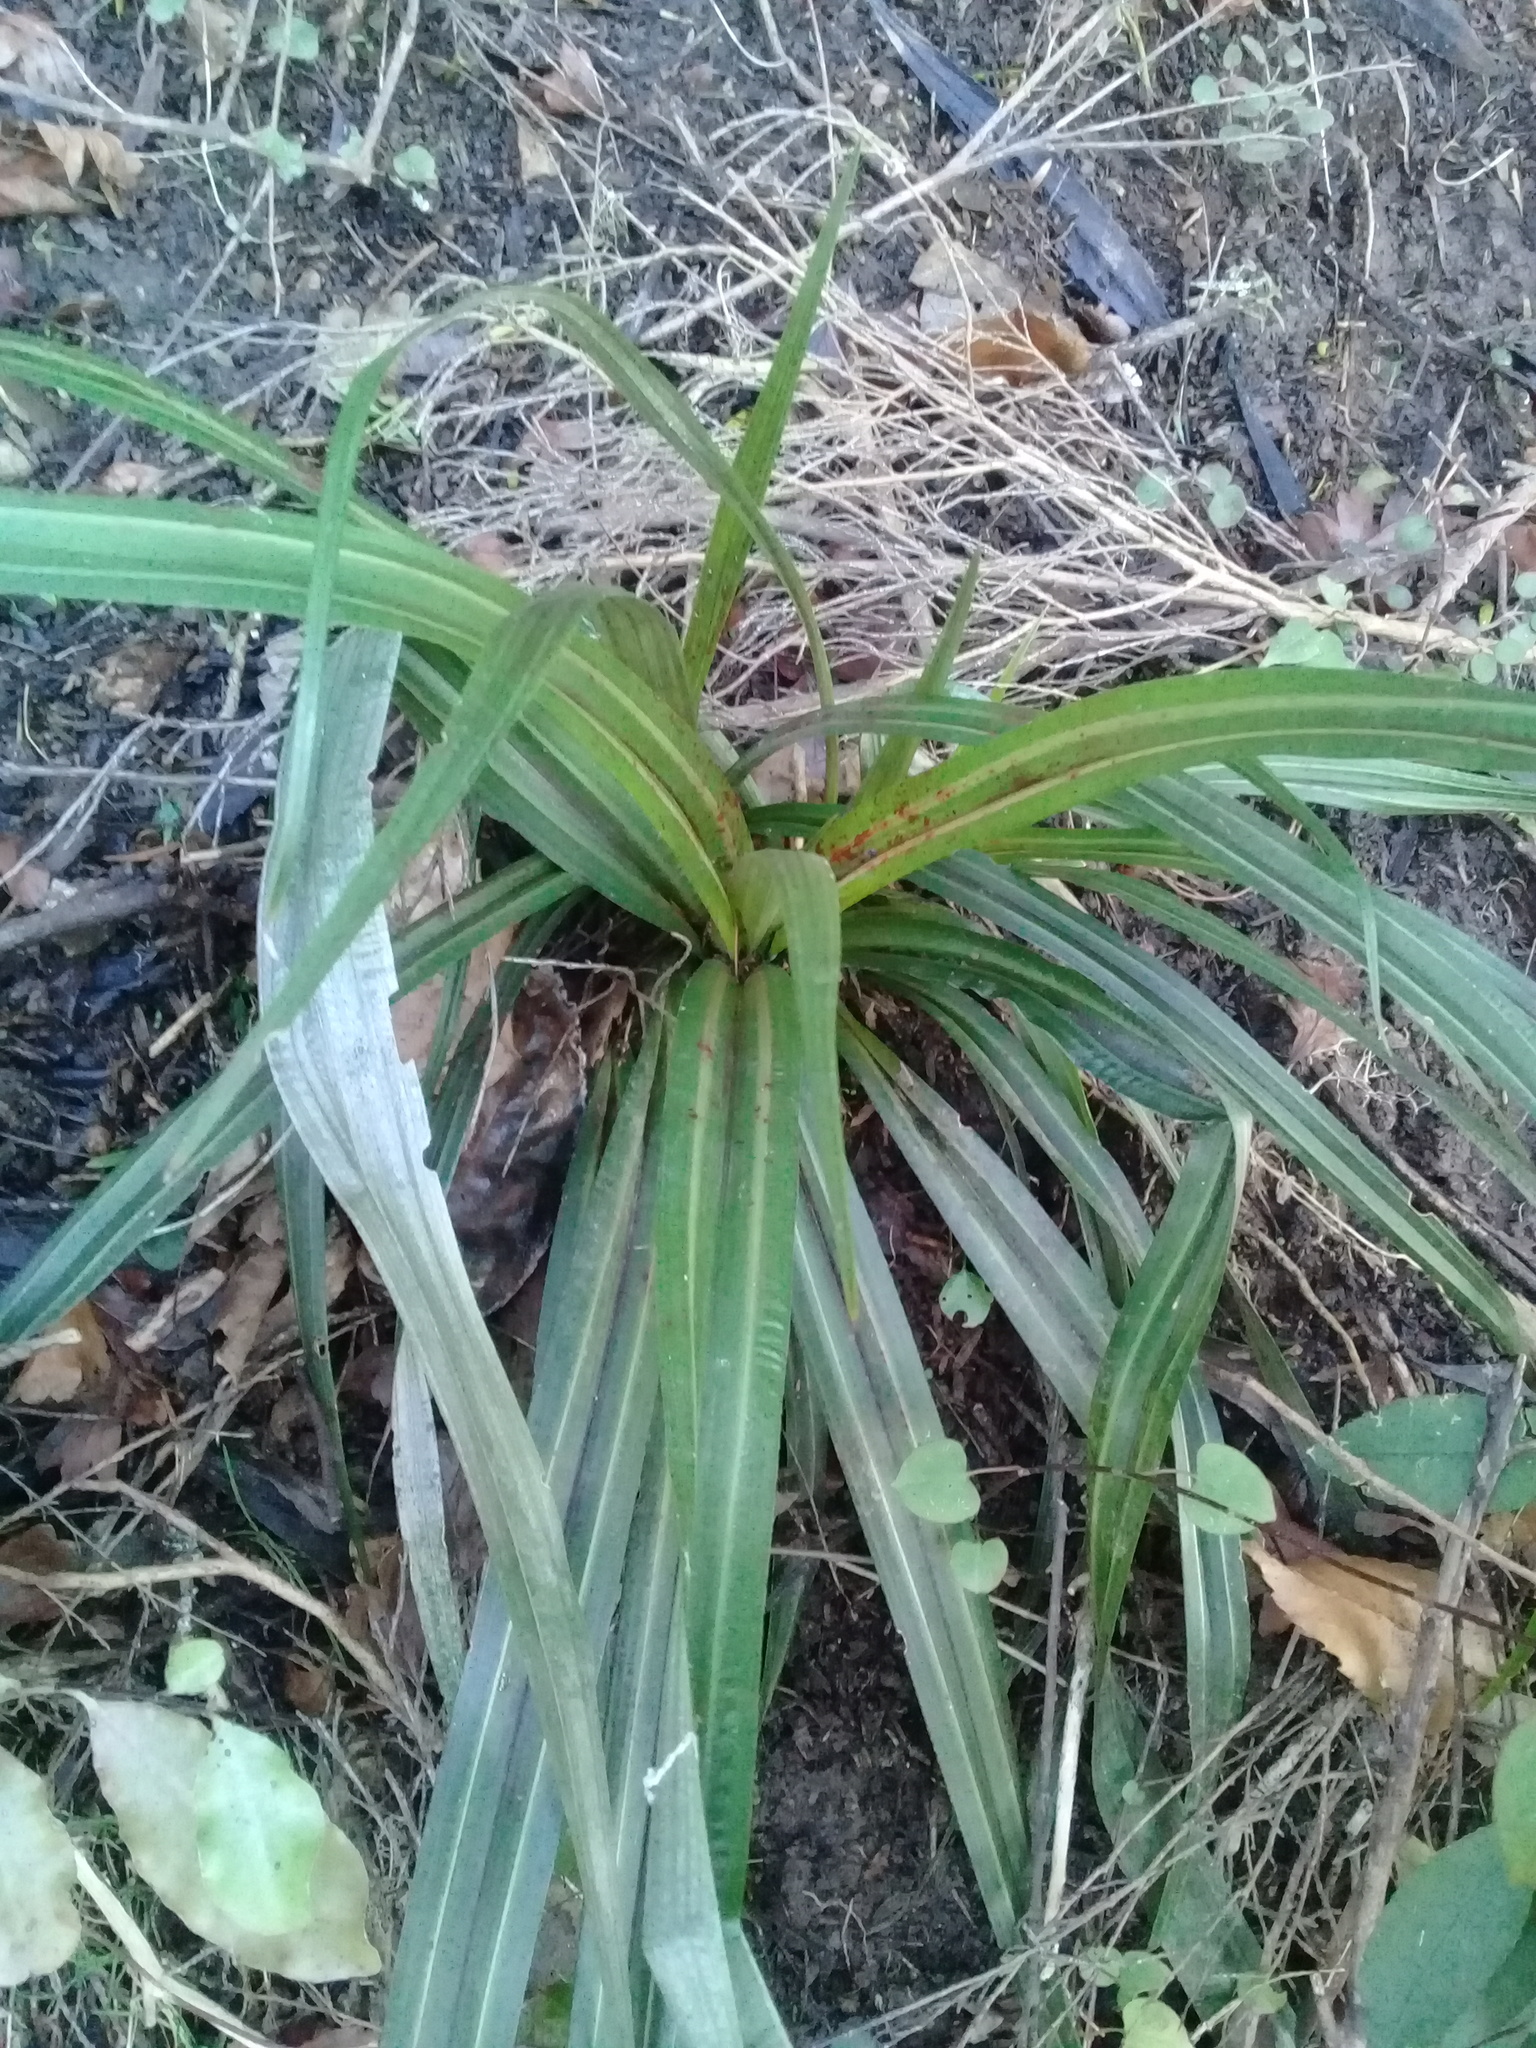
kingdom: Plantae
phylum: Tracheophyta
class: Liliopsida
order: Asparagales
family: Asteliaceae
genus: Astelia
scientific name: Astelia fragrans
